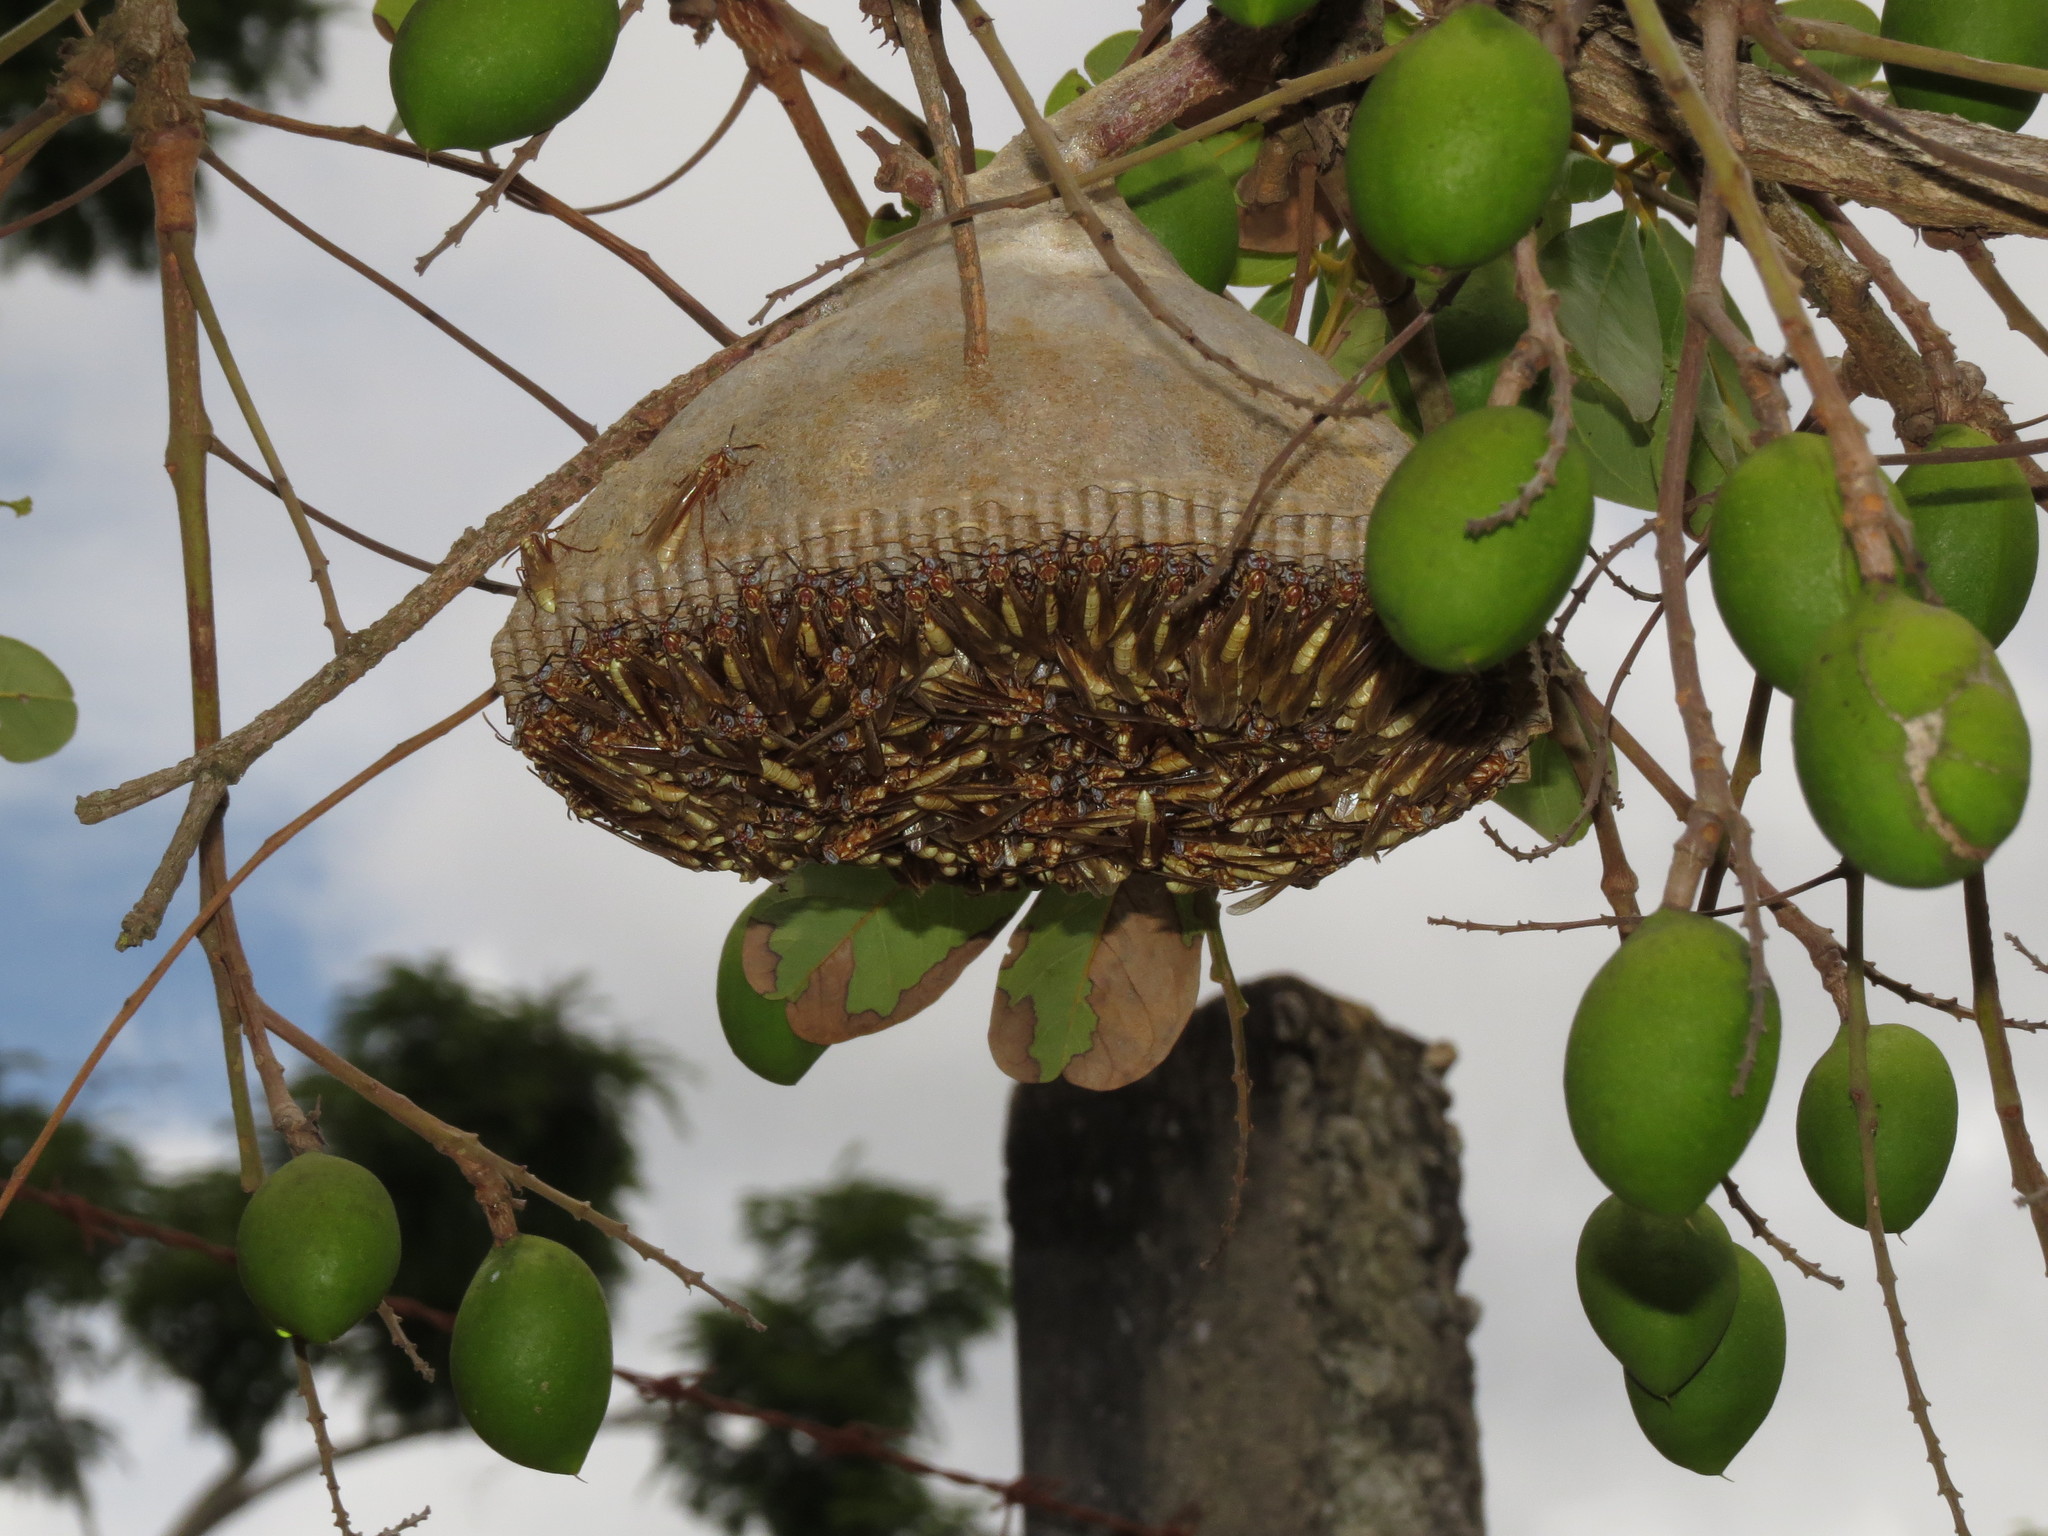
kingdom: Animalia
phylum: Arthropoda
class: Insecta
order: Hymenoptera
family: Vespidae
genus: Apoica
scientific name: Apoica pallens
